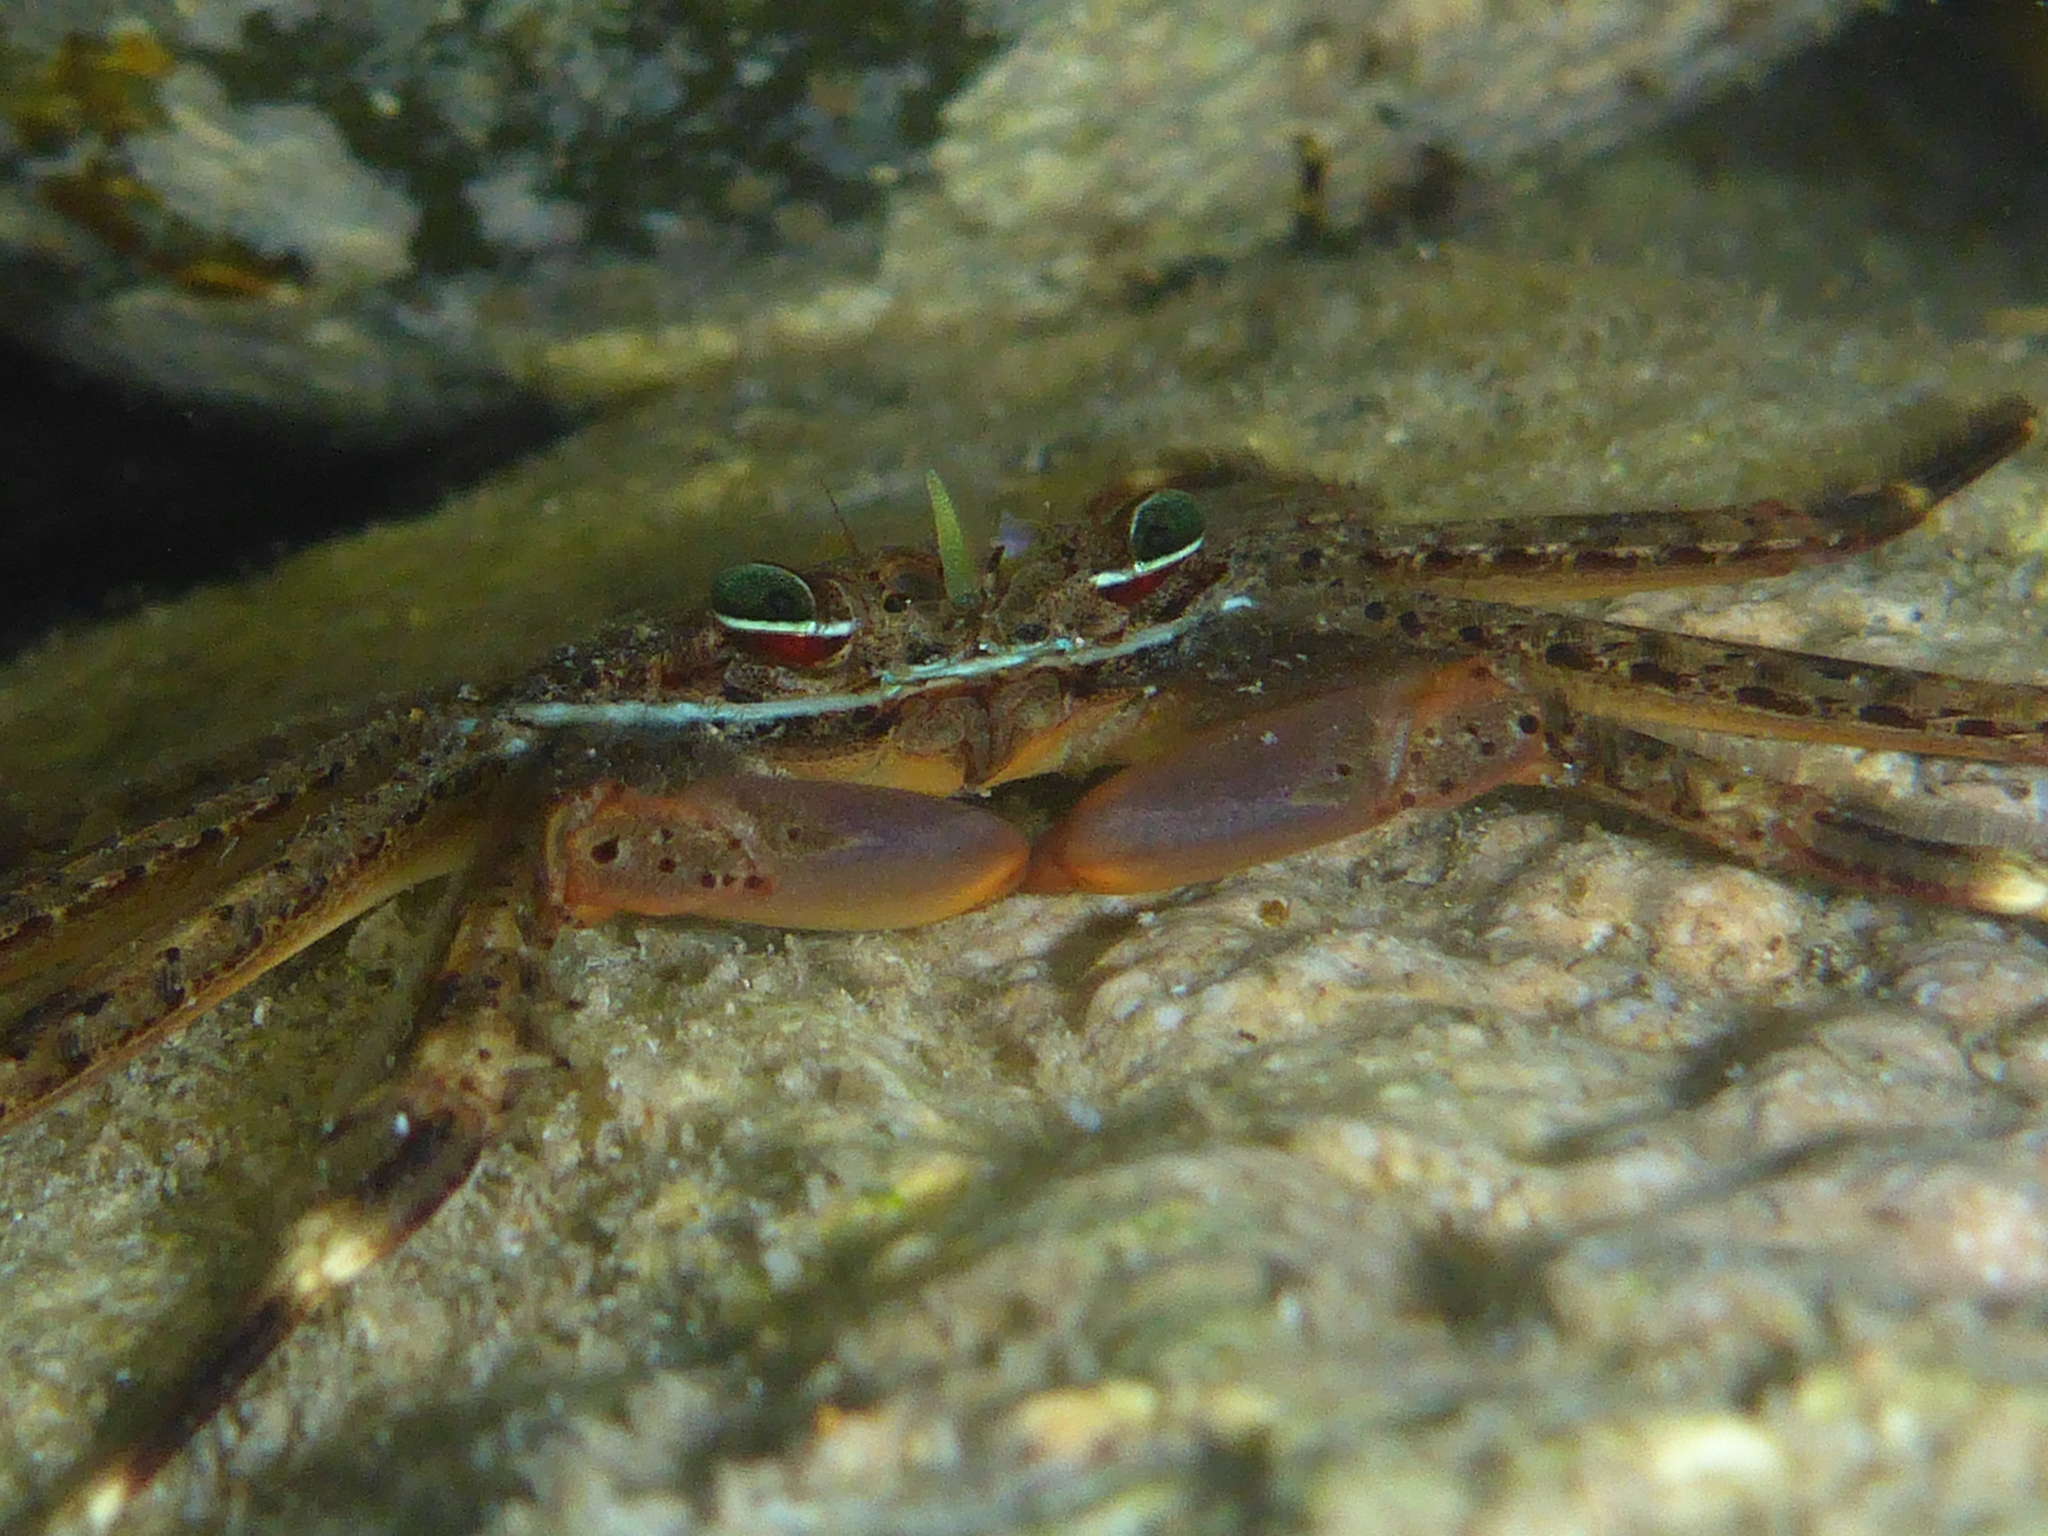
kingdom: Animalia
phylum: Arthropoda
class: Malacostraca
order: Decapoda
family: Percnidae
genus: Percnon
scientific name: Percnon planissimum
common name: Flat rock crab
